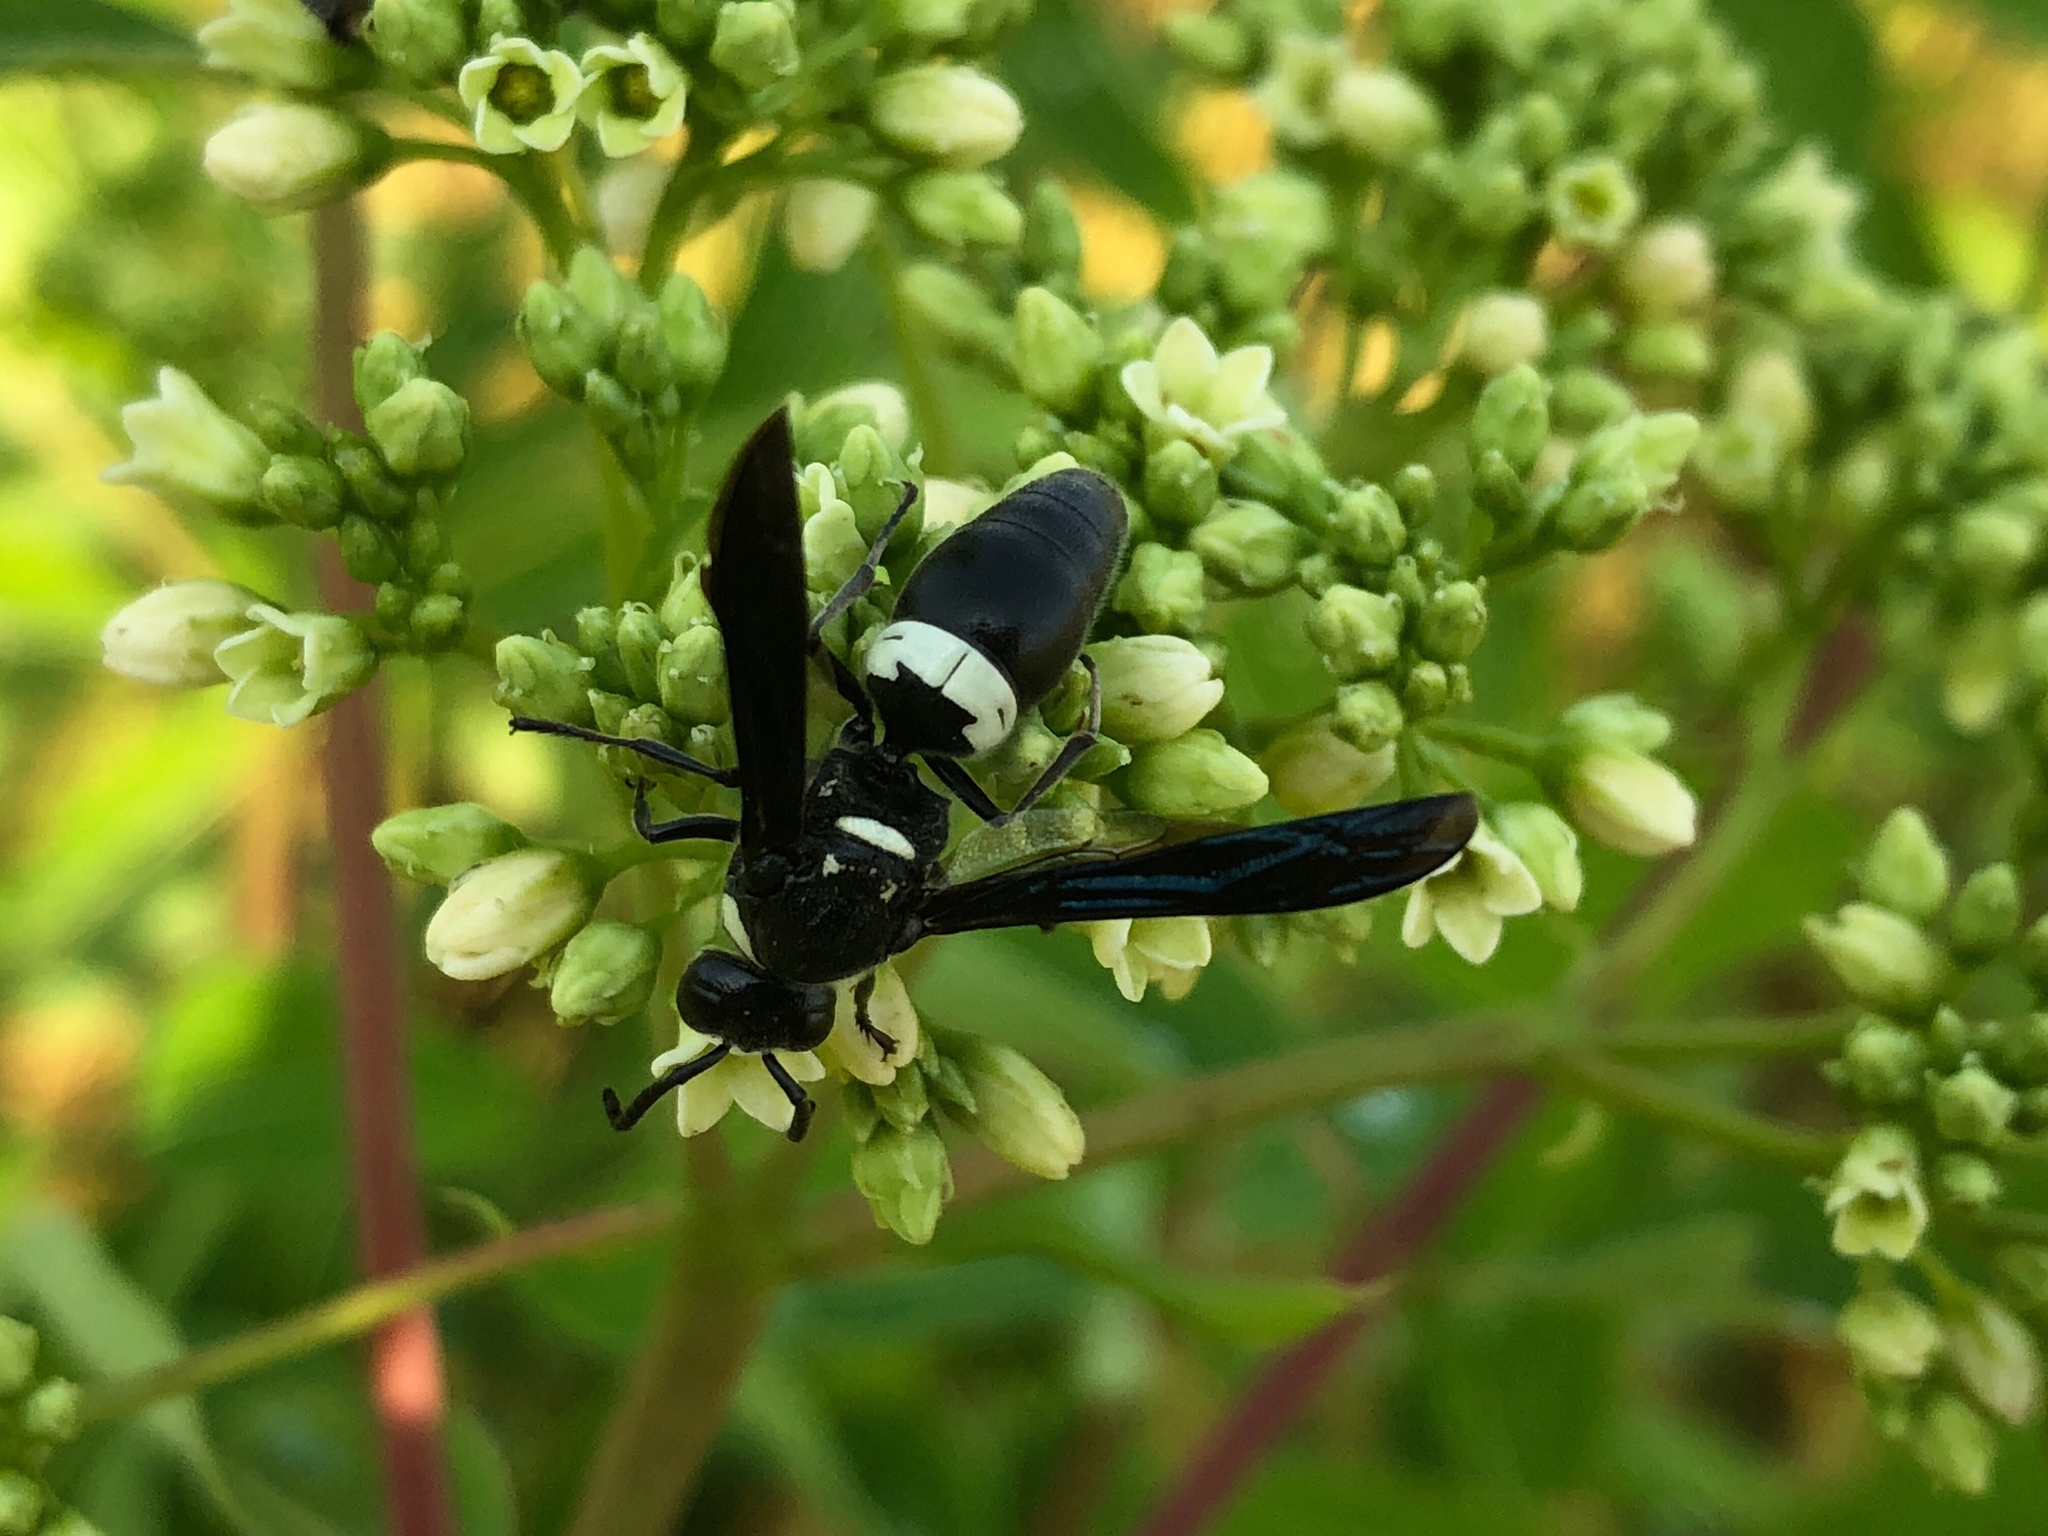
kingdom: Animalia
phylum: Arthropoda
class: Insecta
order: Hymenoptera
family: Eumenidae
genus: Monobia
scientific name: Monobia quadridens
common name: Four-toothed mason wasp
